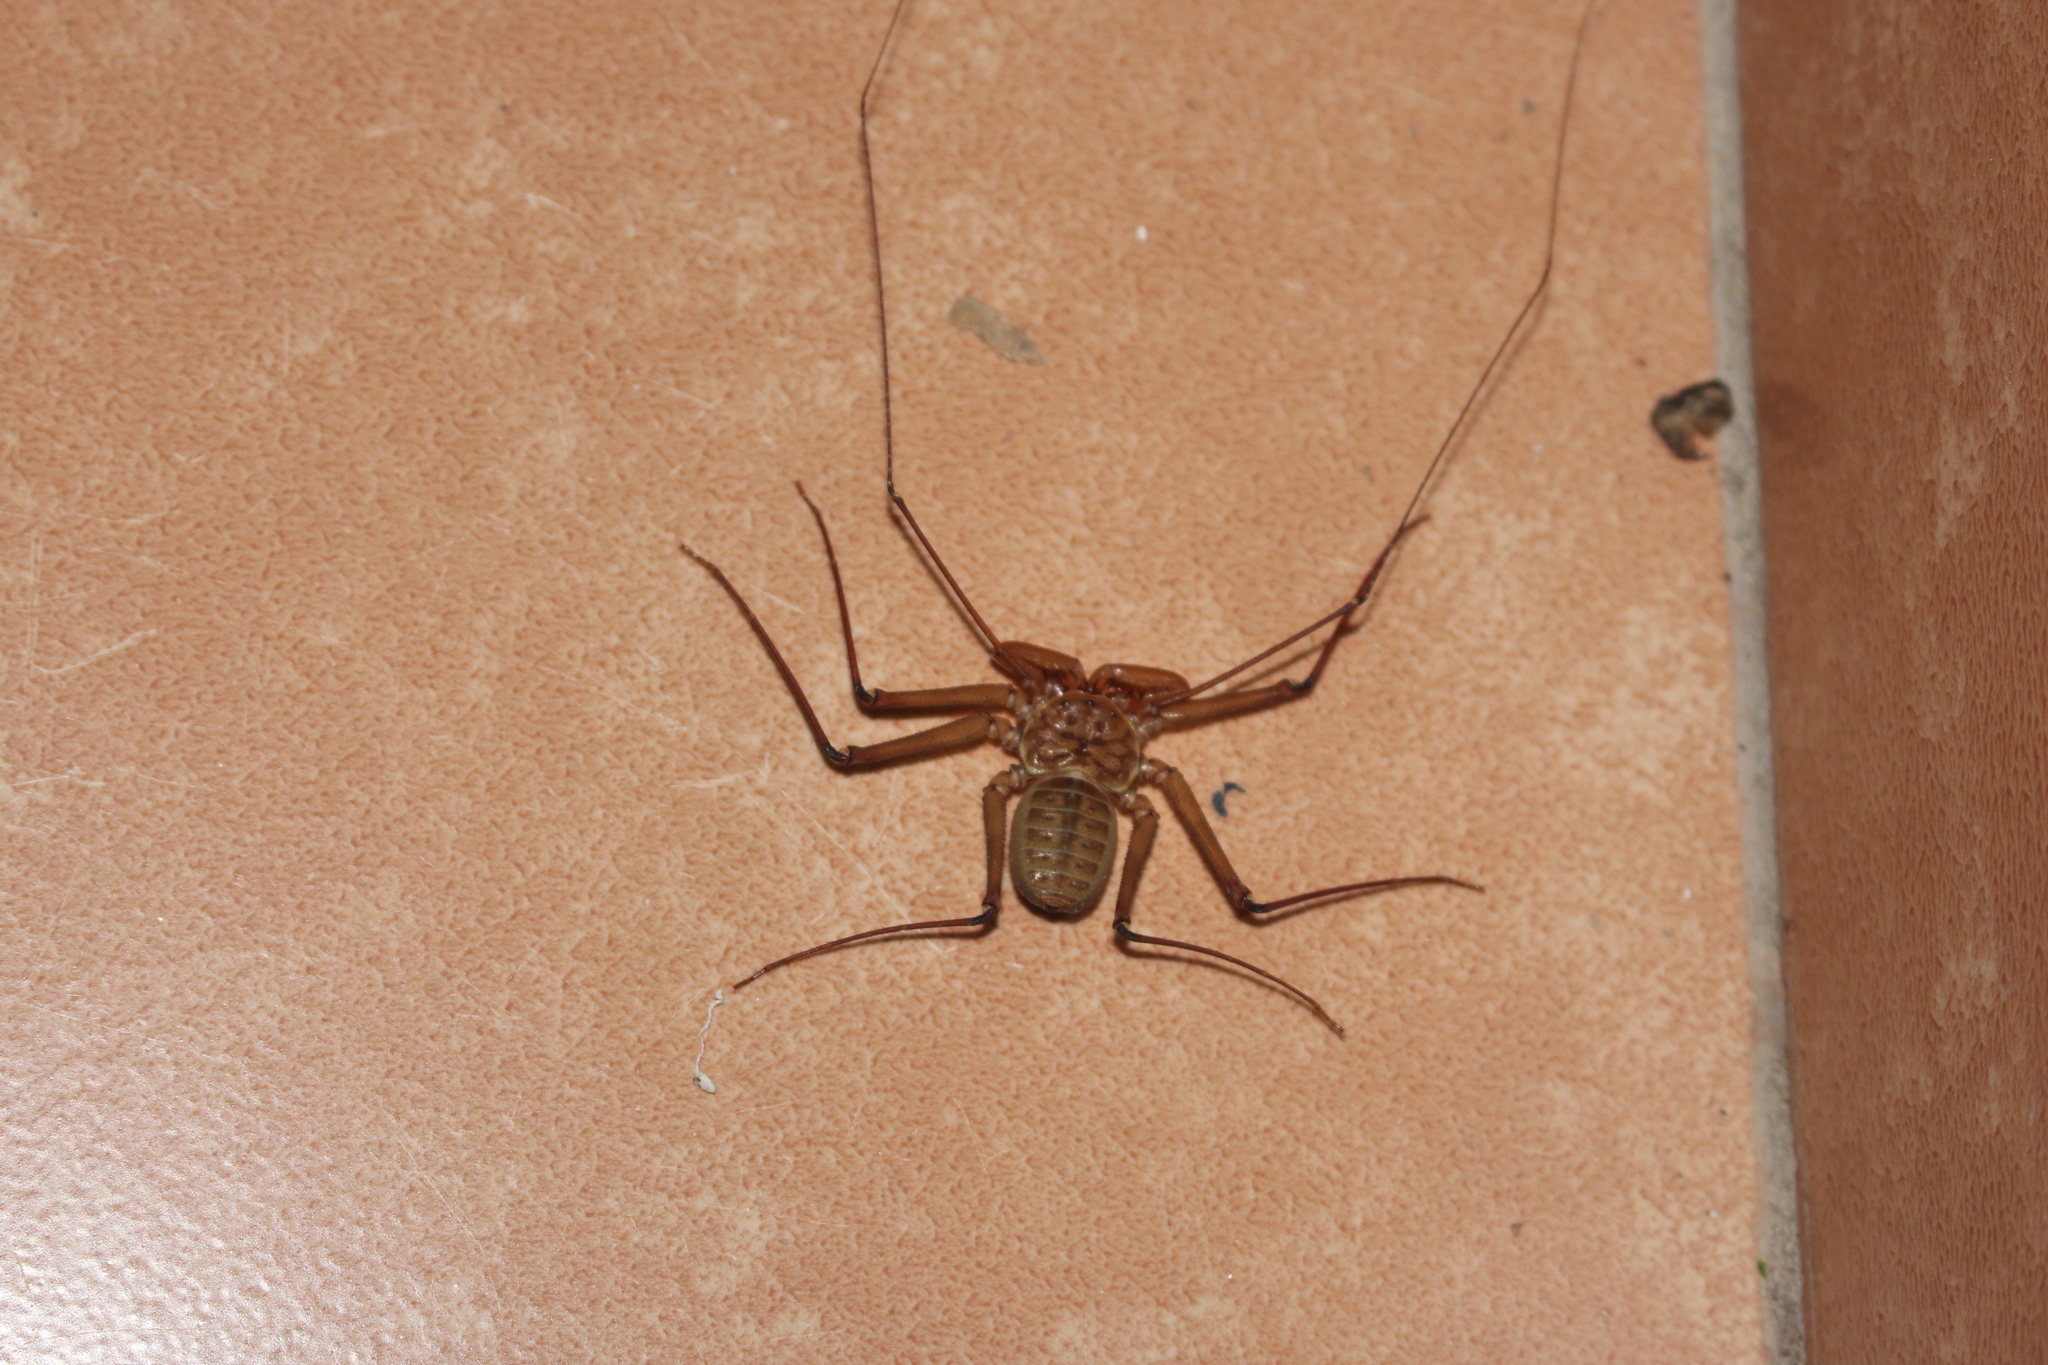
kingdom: Animalia
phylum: Arthropoda
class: Arachnida
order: Amblypygi
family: Phrynidae
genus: Phrynus
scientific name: Phrynus asperatipes
